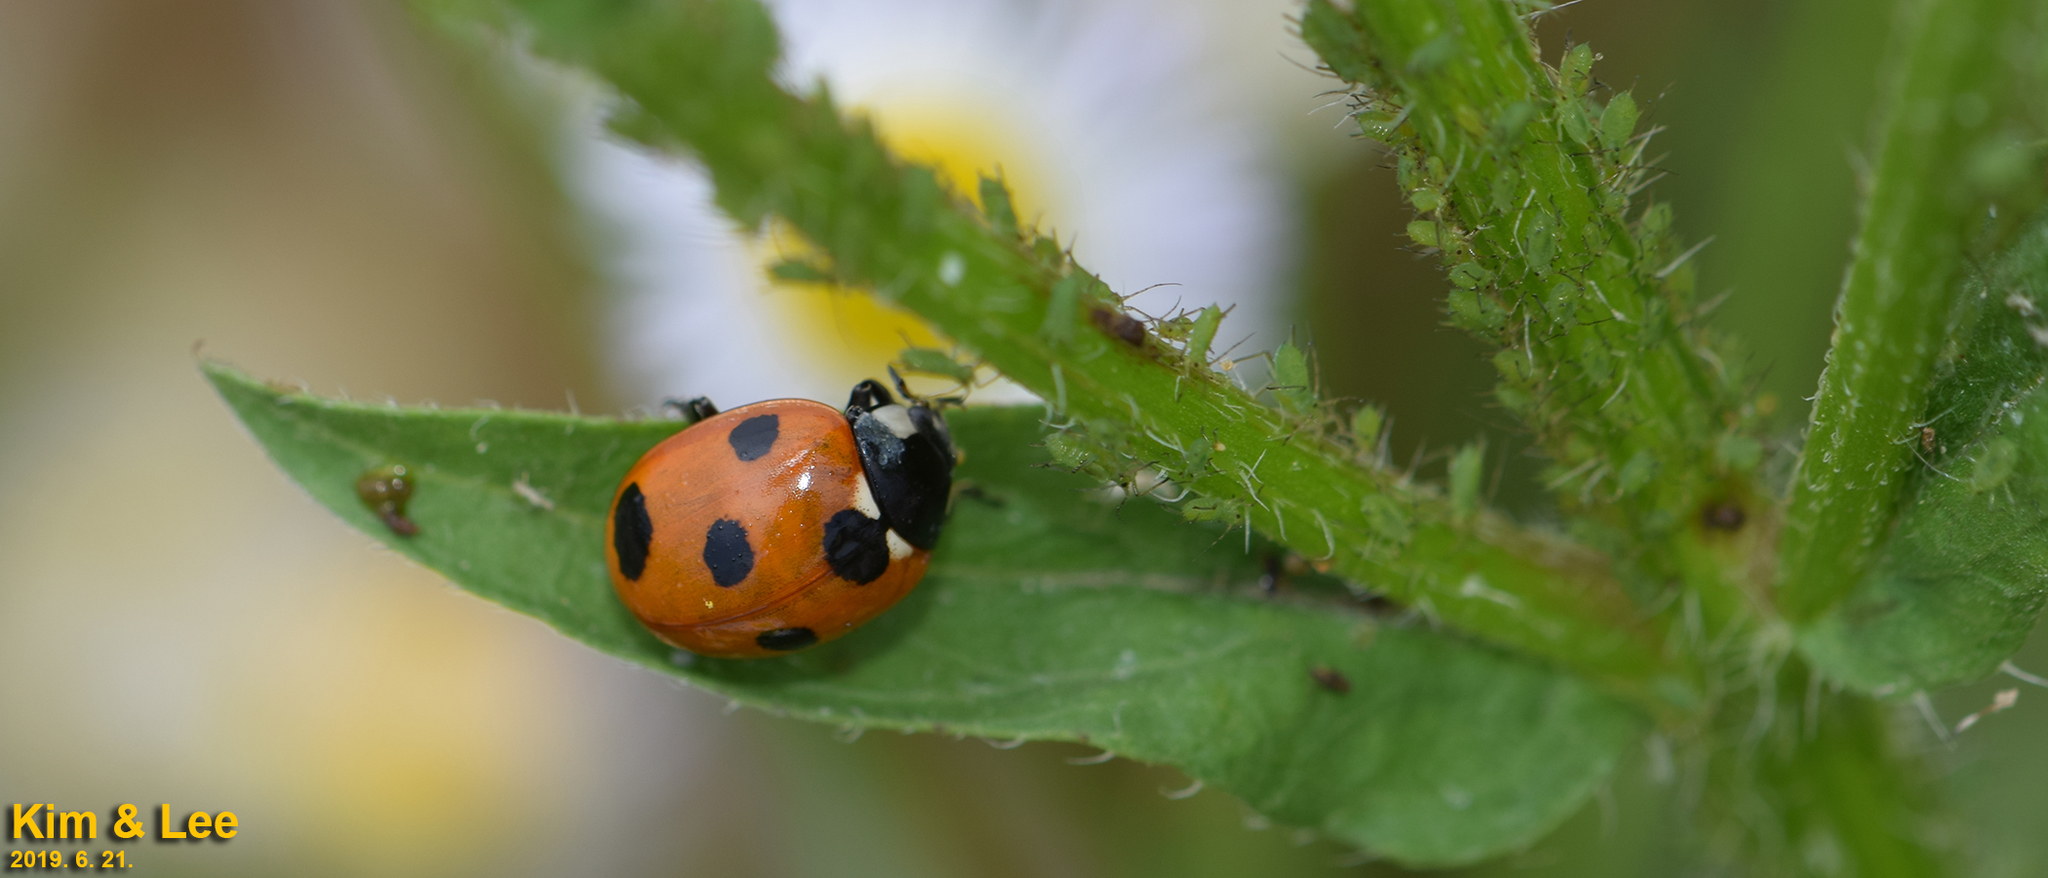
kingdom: Animalia
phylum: Arthropoda
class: Insecta
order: Coleoptera
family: Coccinellidae
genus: Coccinella
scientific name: Coccinella septempunctata
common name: Sevenspotted lady beetle
